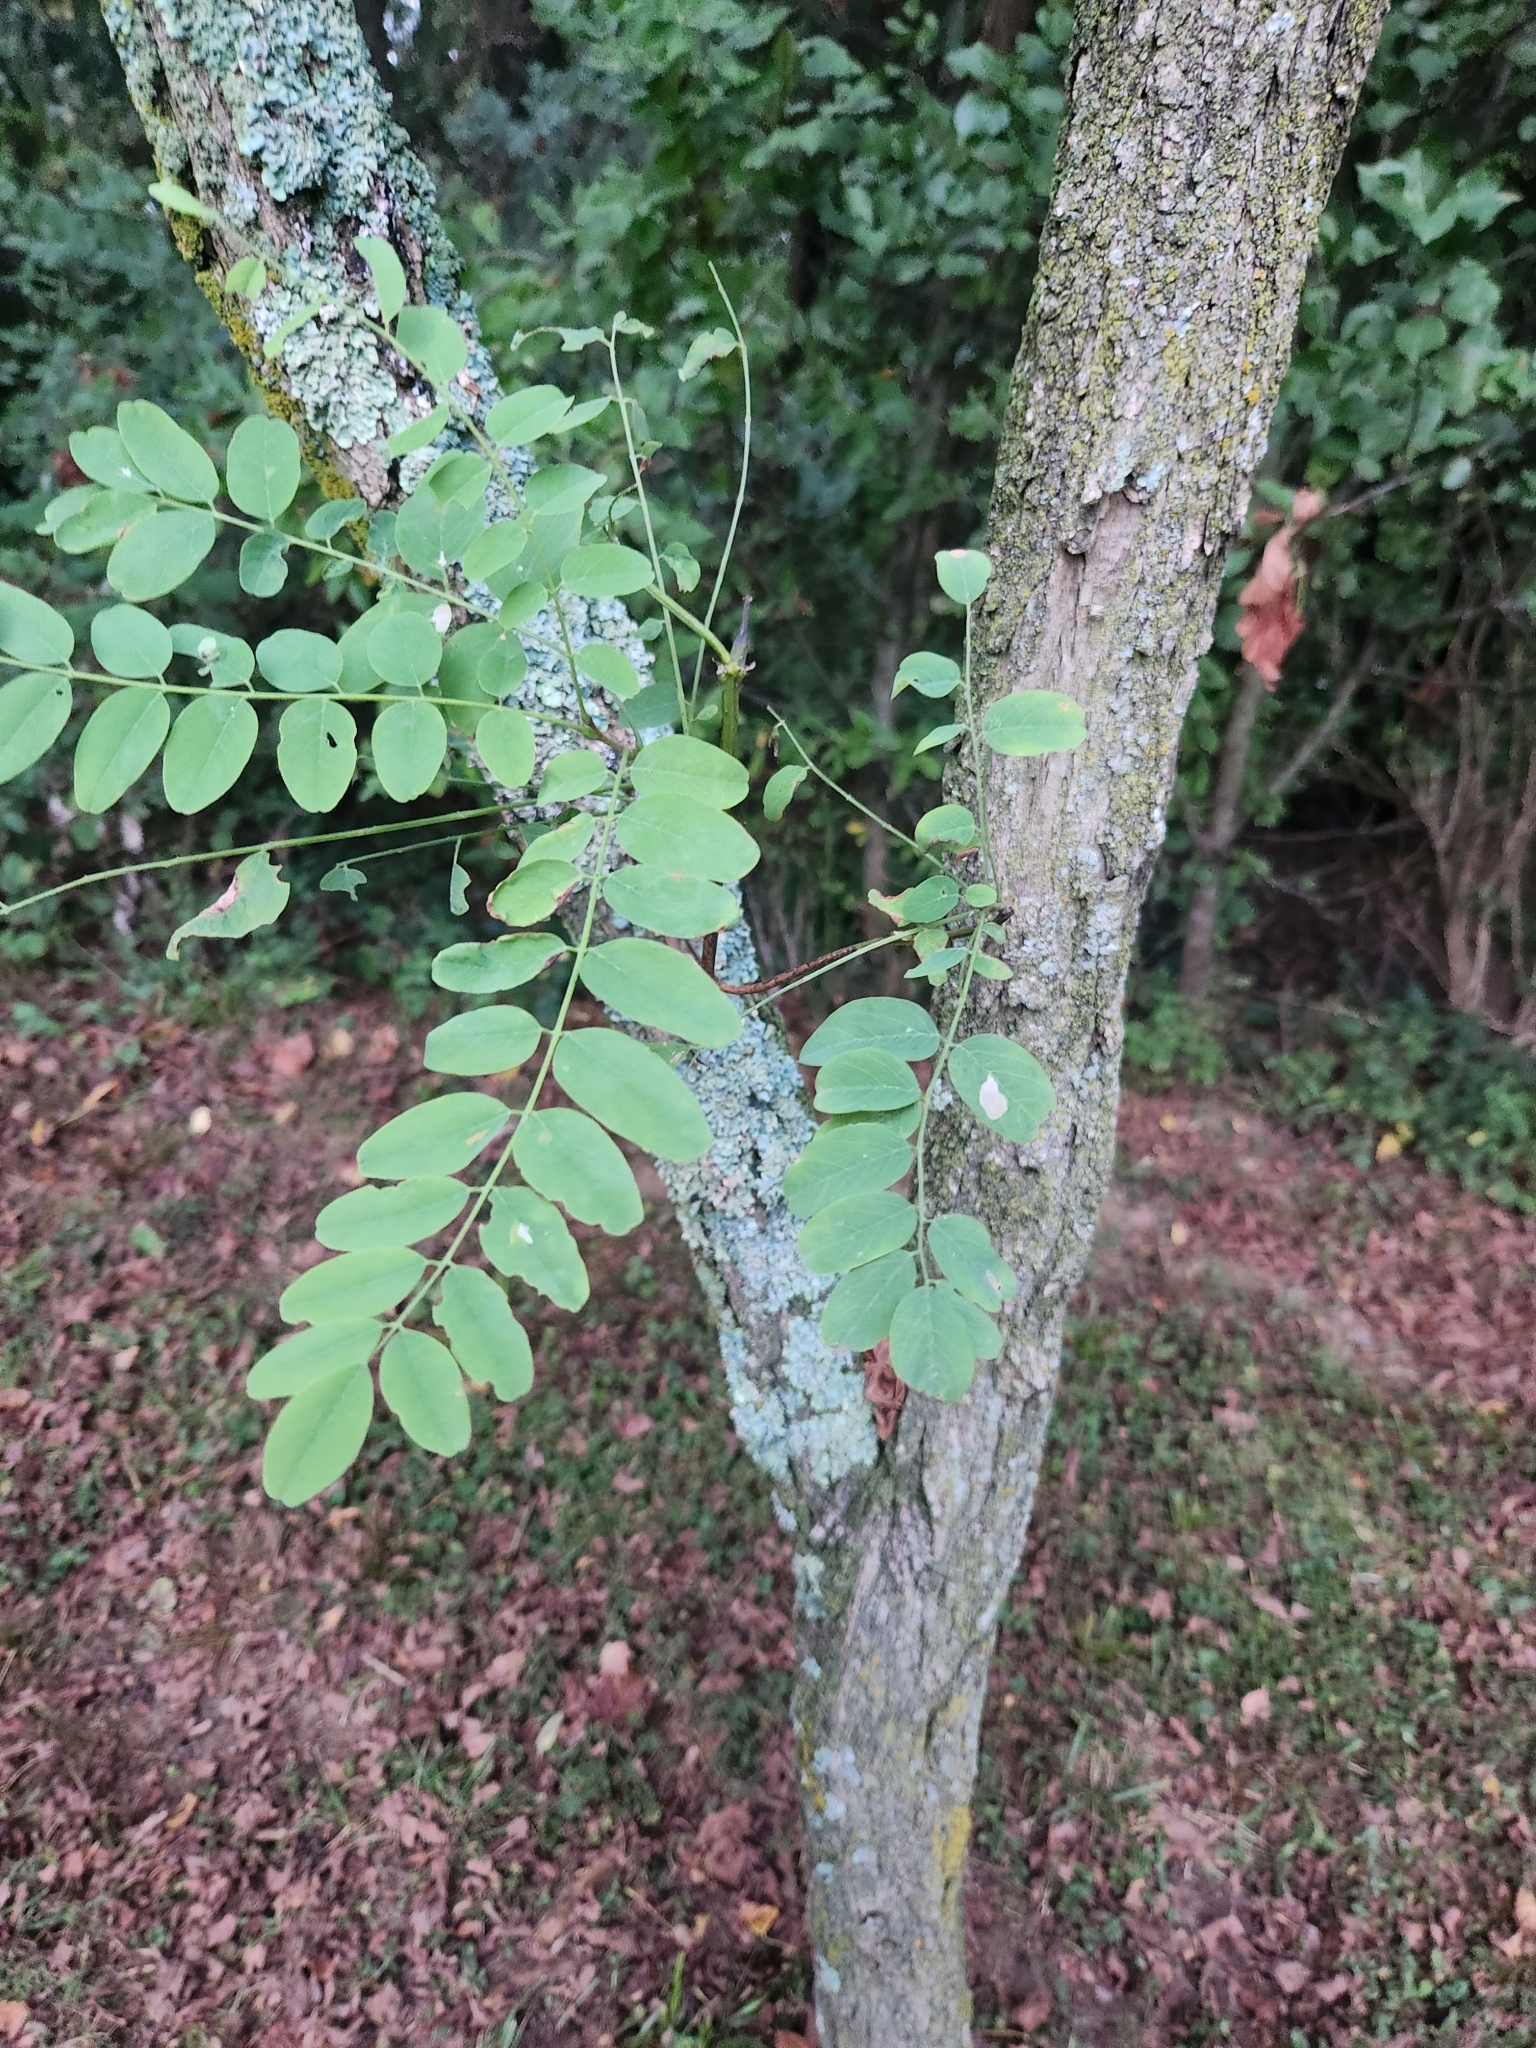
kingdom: Plantae
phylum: Tracheophyta
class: Magnoliopsida
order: Fabales
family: Fabaceae
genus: Robinia
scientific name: Robinia pseudoacacia
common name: Black locust
